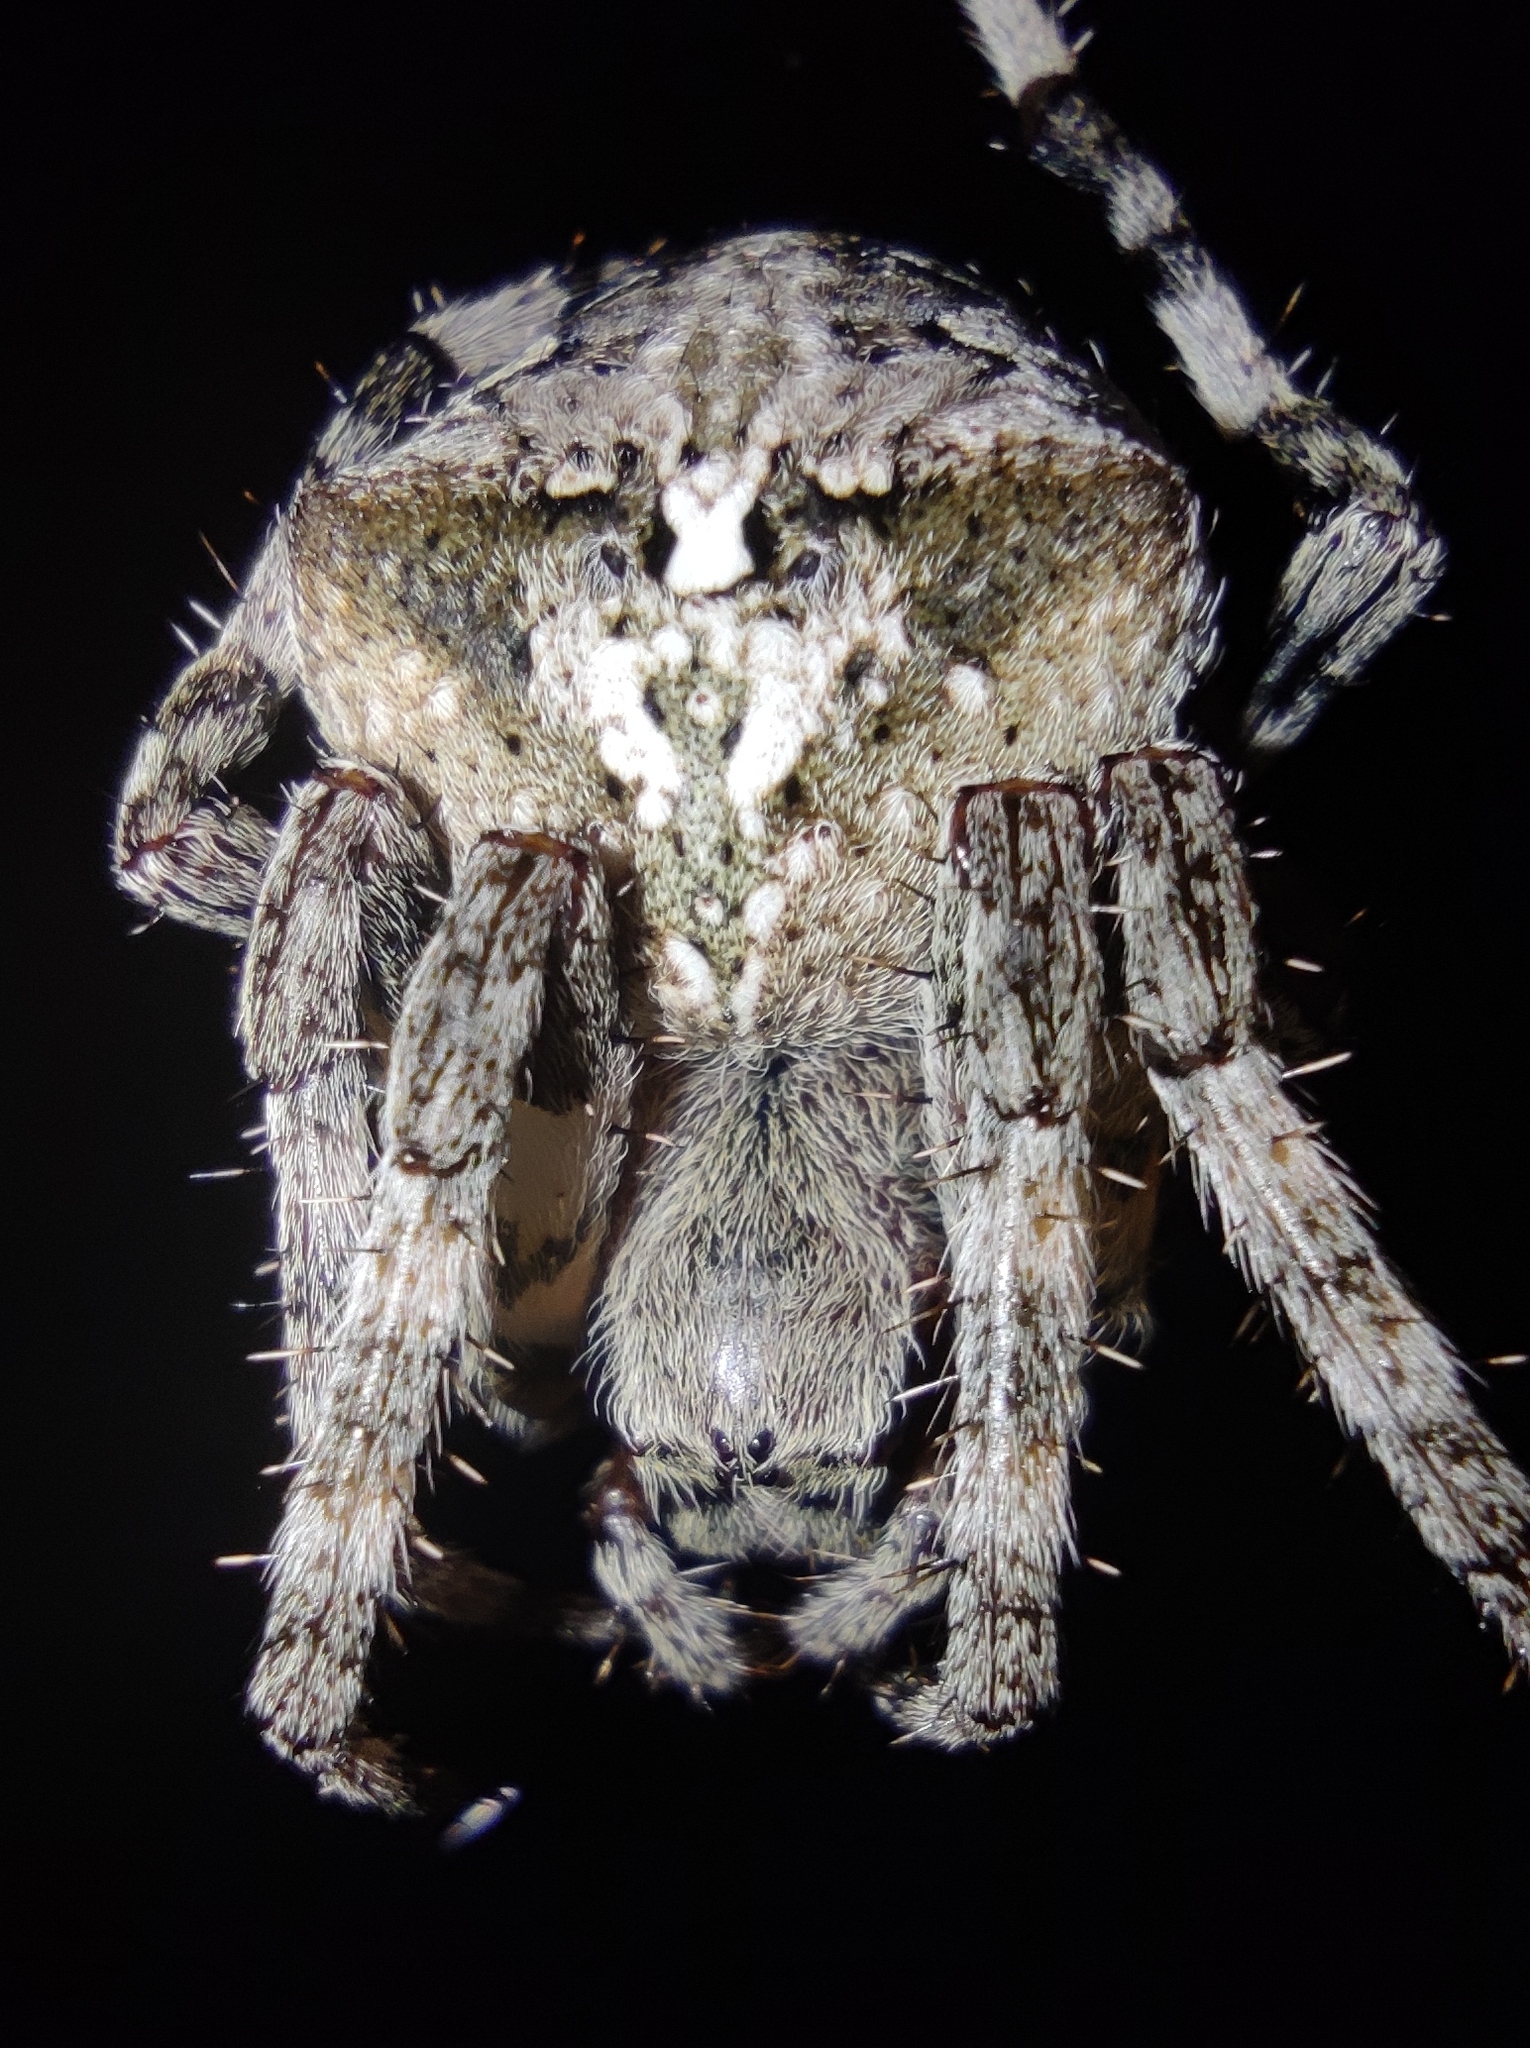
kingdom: Animalia
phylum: Arthropoda
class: Arachnida
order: Araneae
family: Araneidae
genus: Araneus
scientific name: Araneus angulatus
